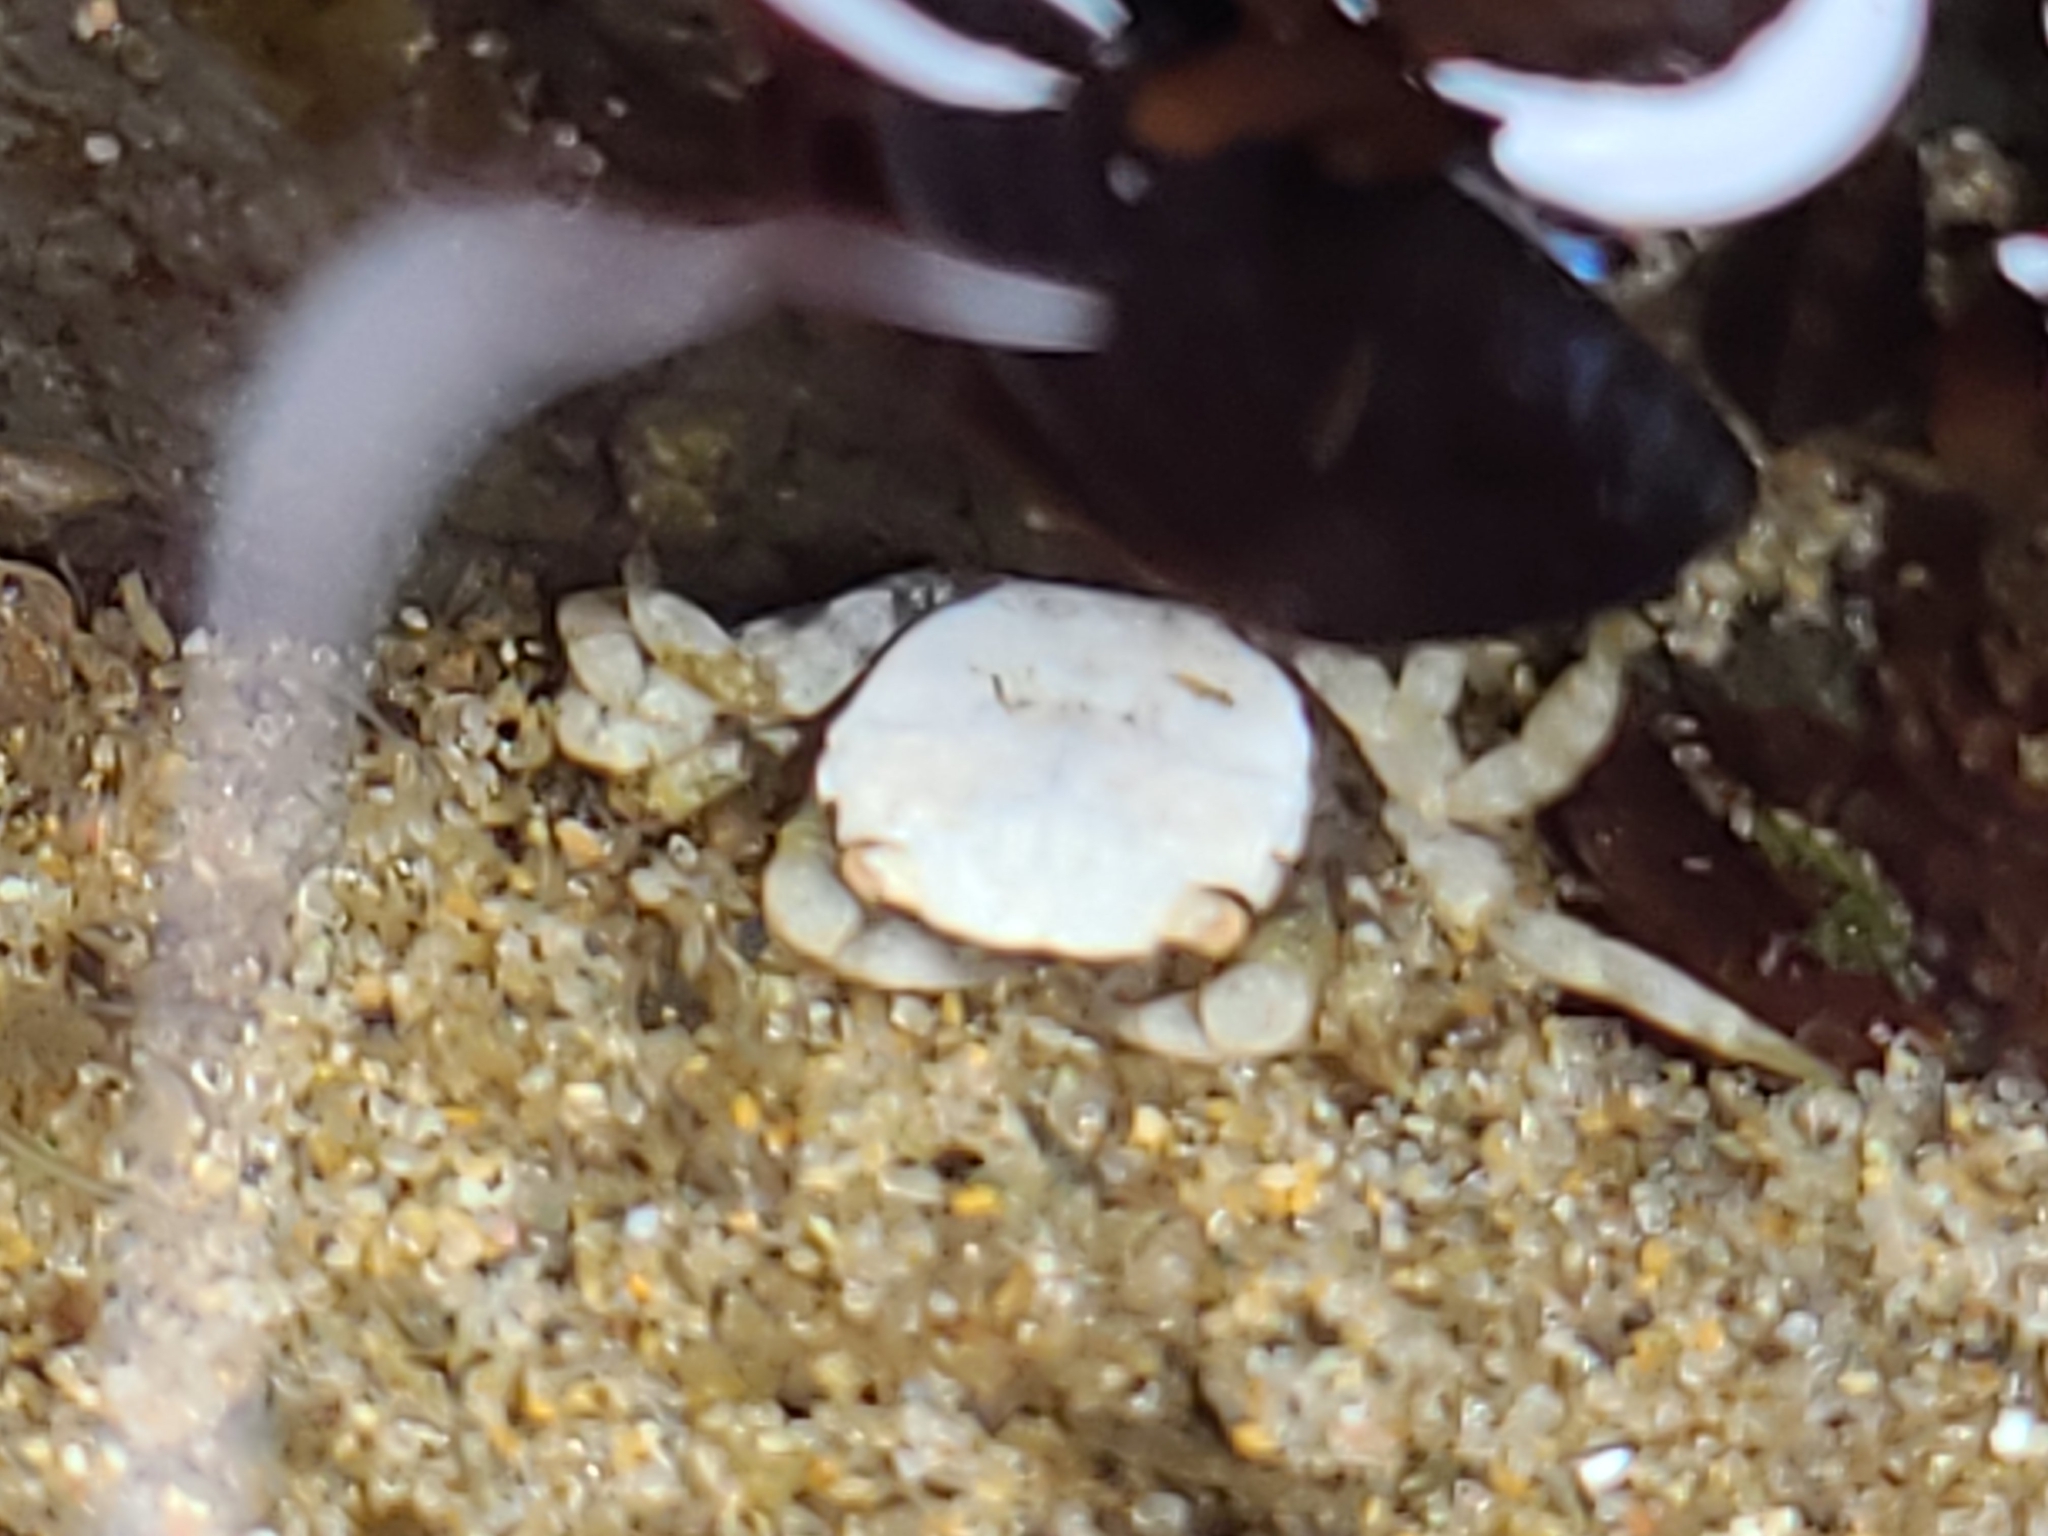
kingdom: Animalia
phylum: Arthropoda
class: Malacostraca
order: Decapoda
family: Varunidae
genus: Hemigrapsus
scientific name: Hemigrapsus nudus
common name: Purple shore crab
